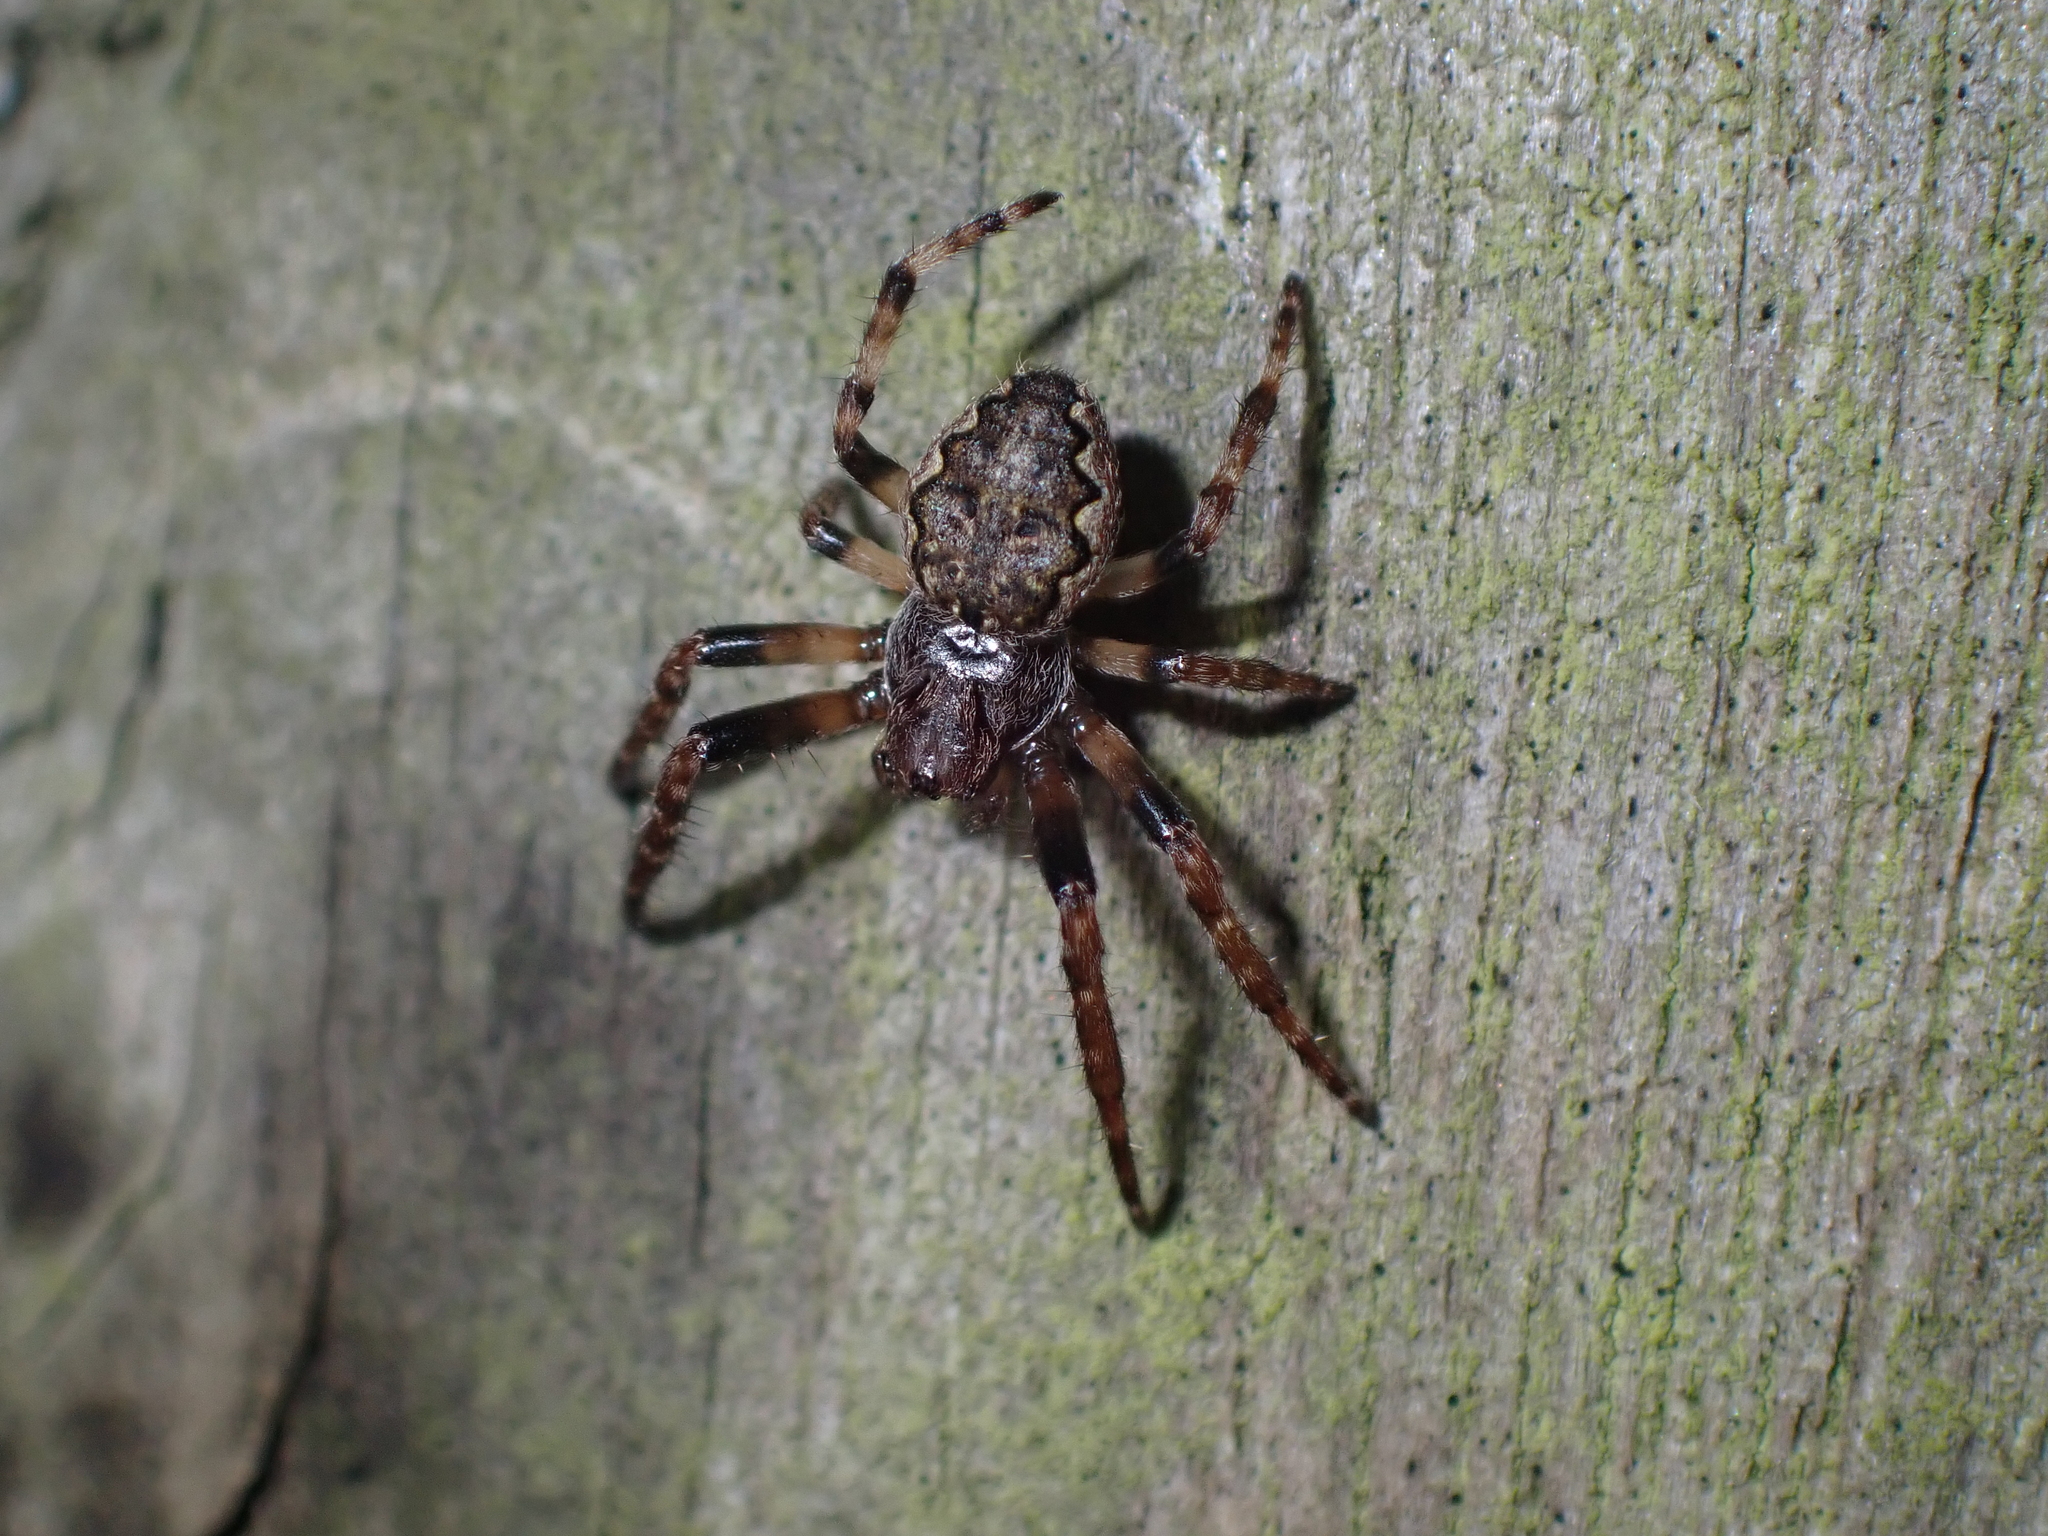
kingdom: Animalia
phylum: Arthropoda
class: Arachnida
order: Araneae
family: Araneidae
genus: Nuctenea
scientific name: Nuctenea umbratica
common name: Toad spider
